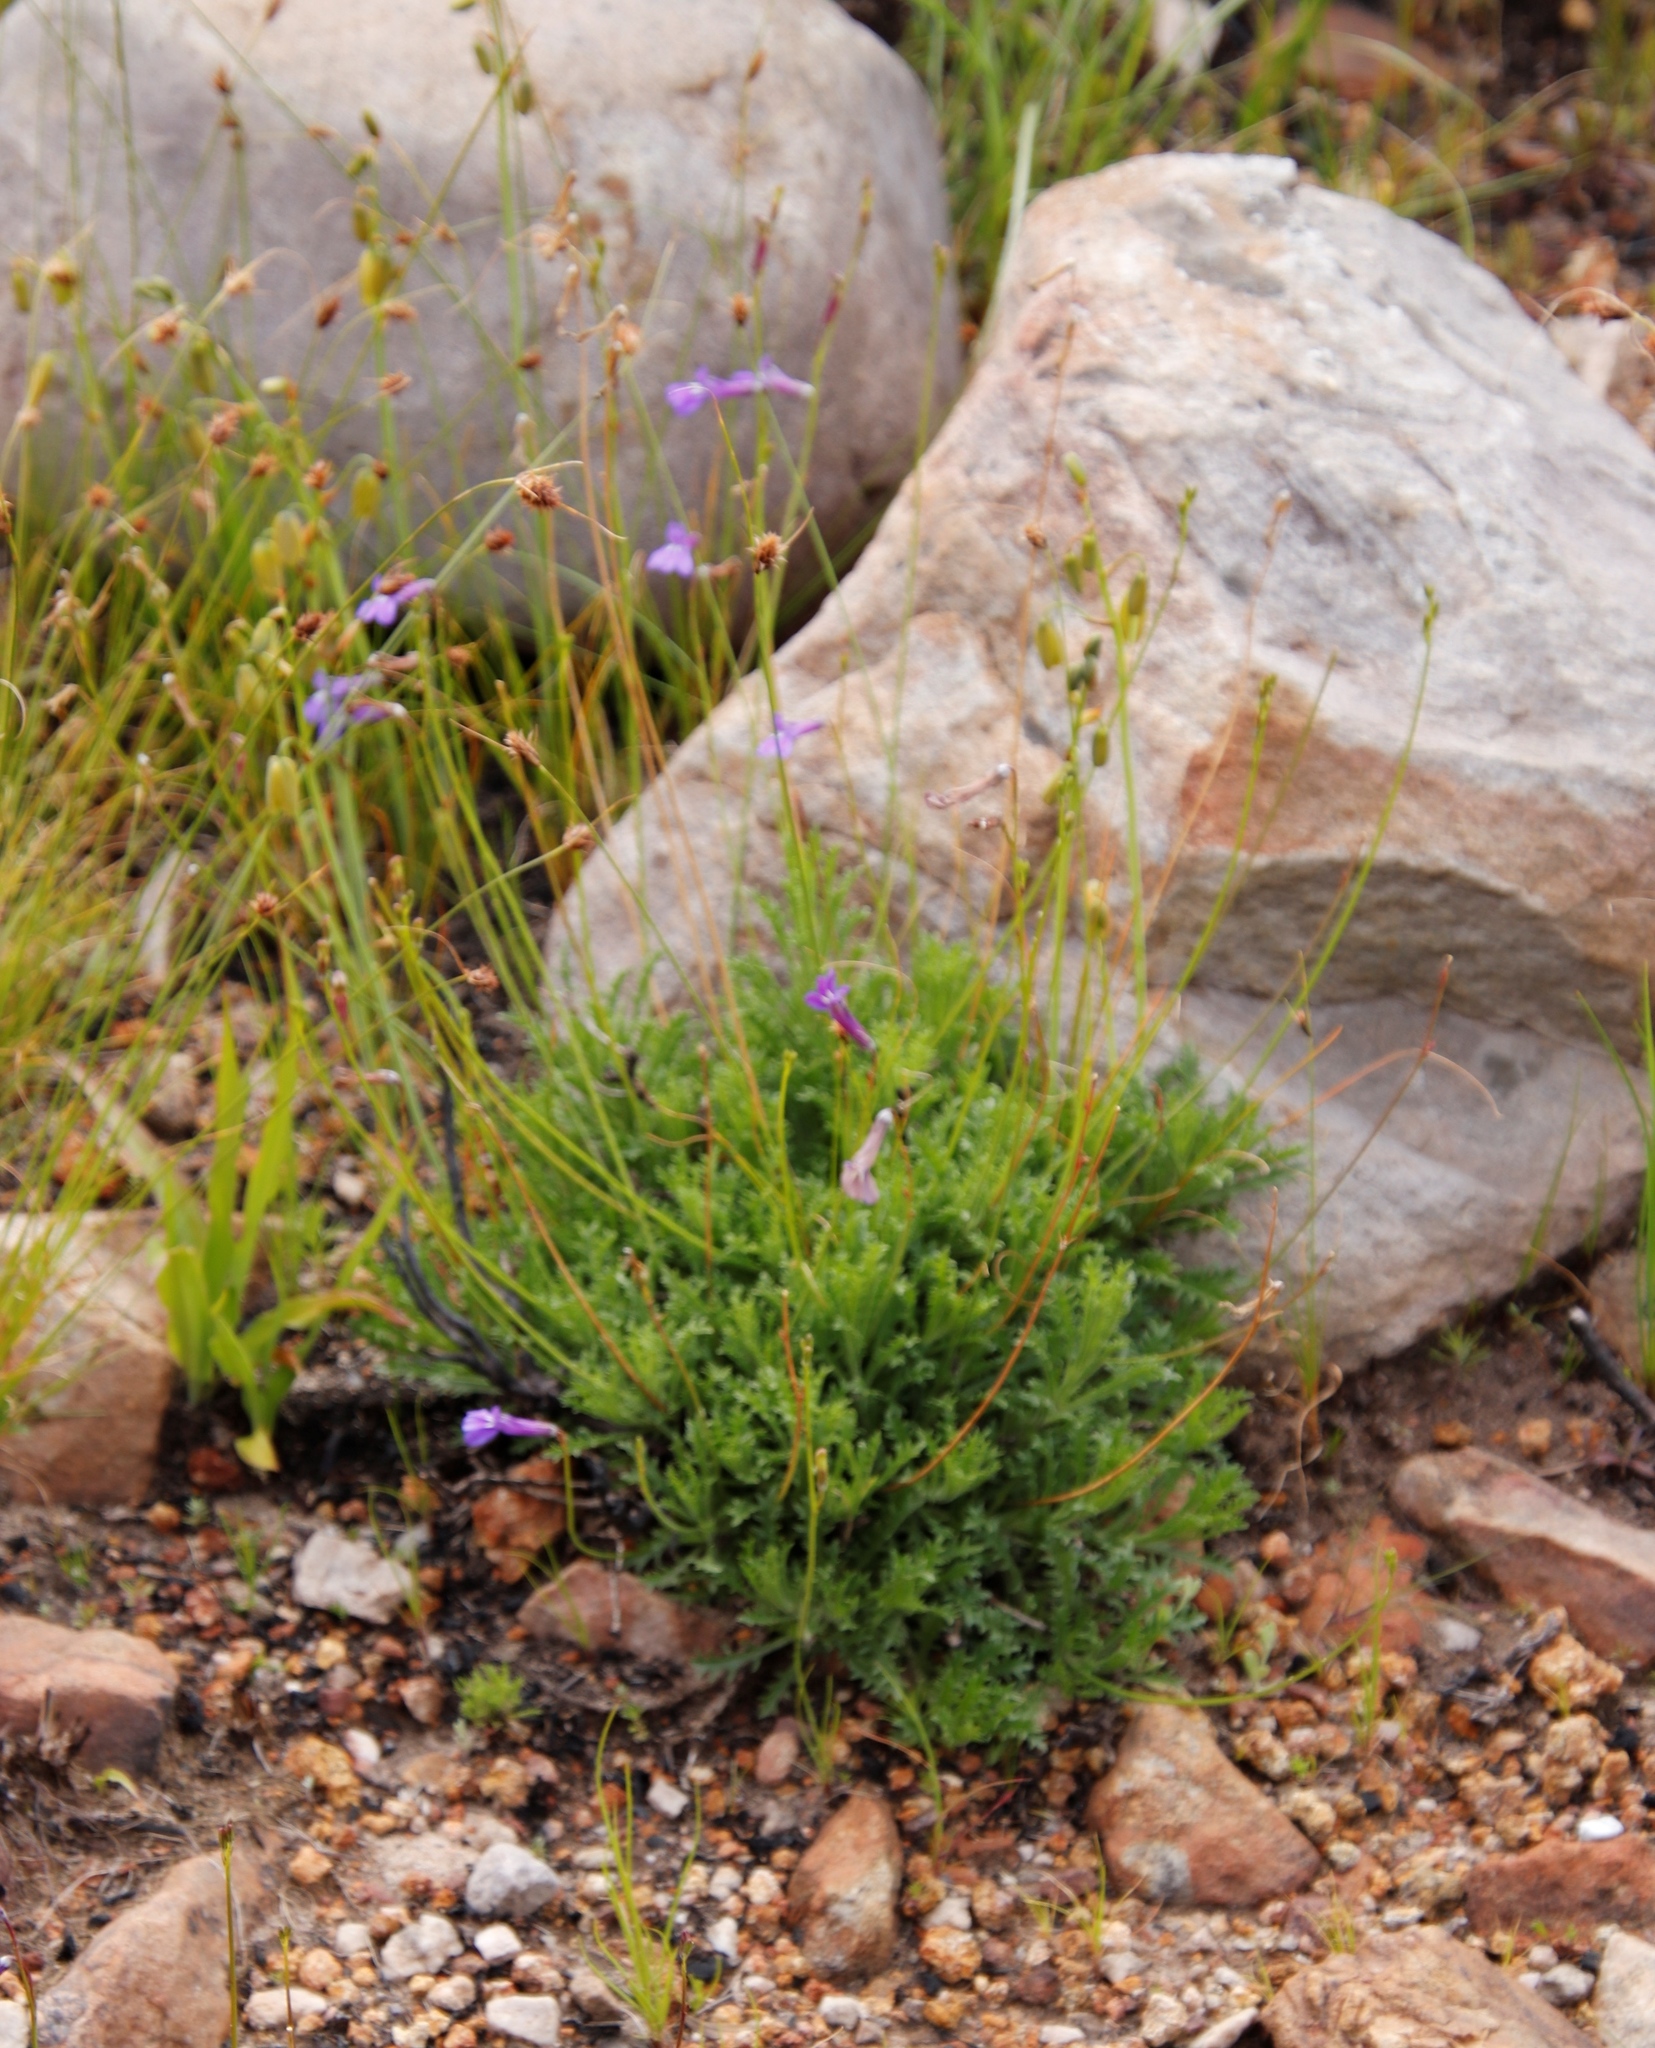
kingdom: Plantae
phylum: Tracheophyta
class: Magnoliopsida
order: Asterales
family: Campanulaceae
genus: Lobelia
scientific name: Lobelia coronopifolia
